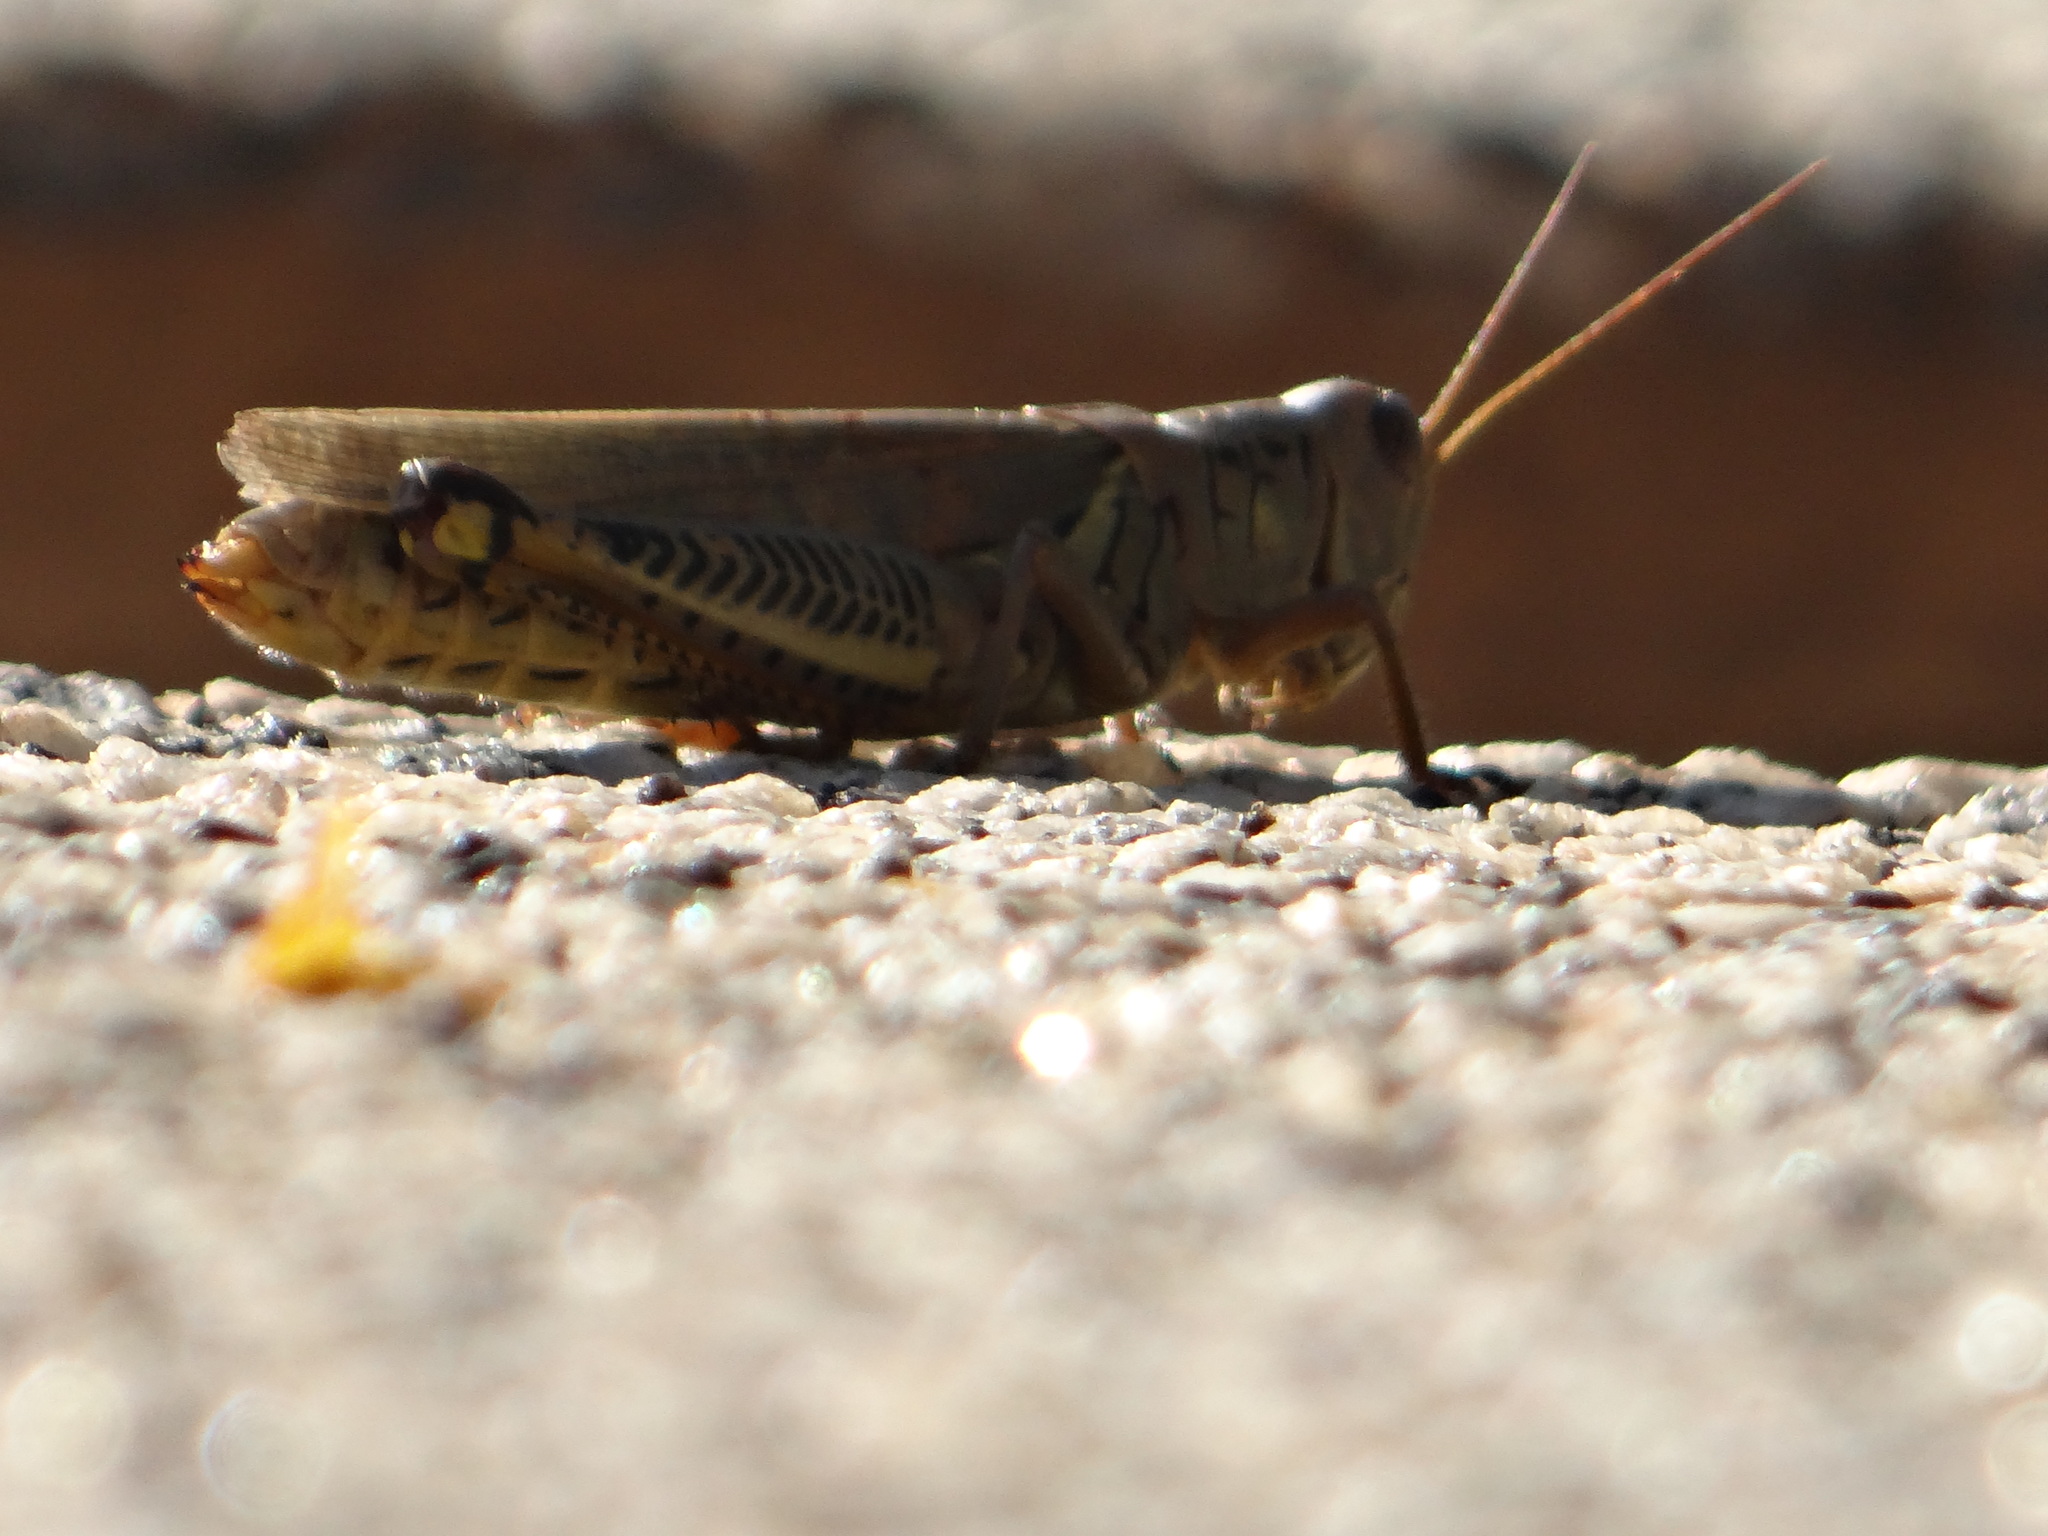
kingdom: Animalia
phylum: Arthropoda
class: Insecta
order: Orthoptera
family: Acrididae
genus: Melanoplus
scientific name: Melanoplus differentialis
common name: Differential grasshopper
